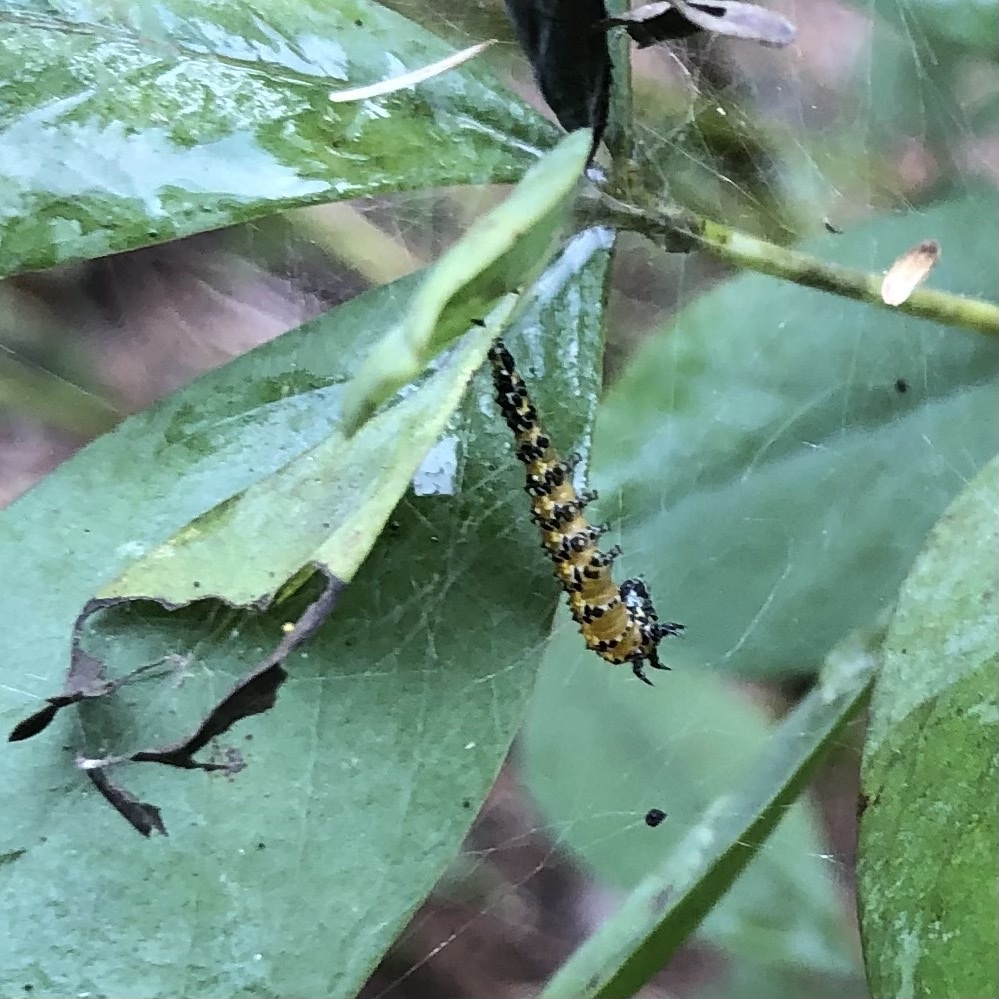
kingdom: Animalia
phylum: Arthropoda
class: Insecta
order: Lepidoptera
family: Crambidae
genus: Uresiphita
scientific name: Uresiphita reversalis
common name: Genista broom moth
